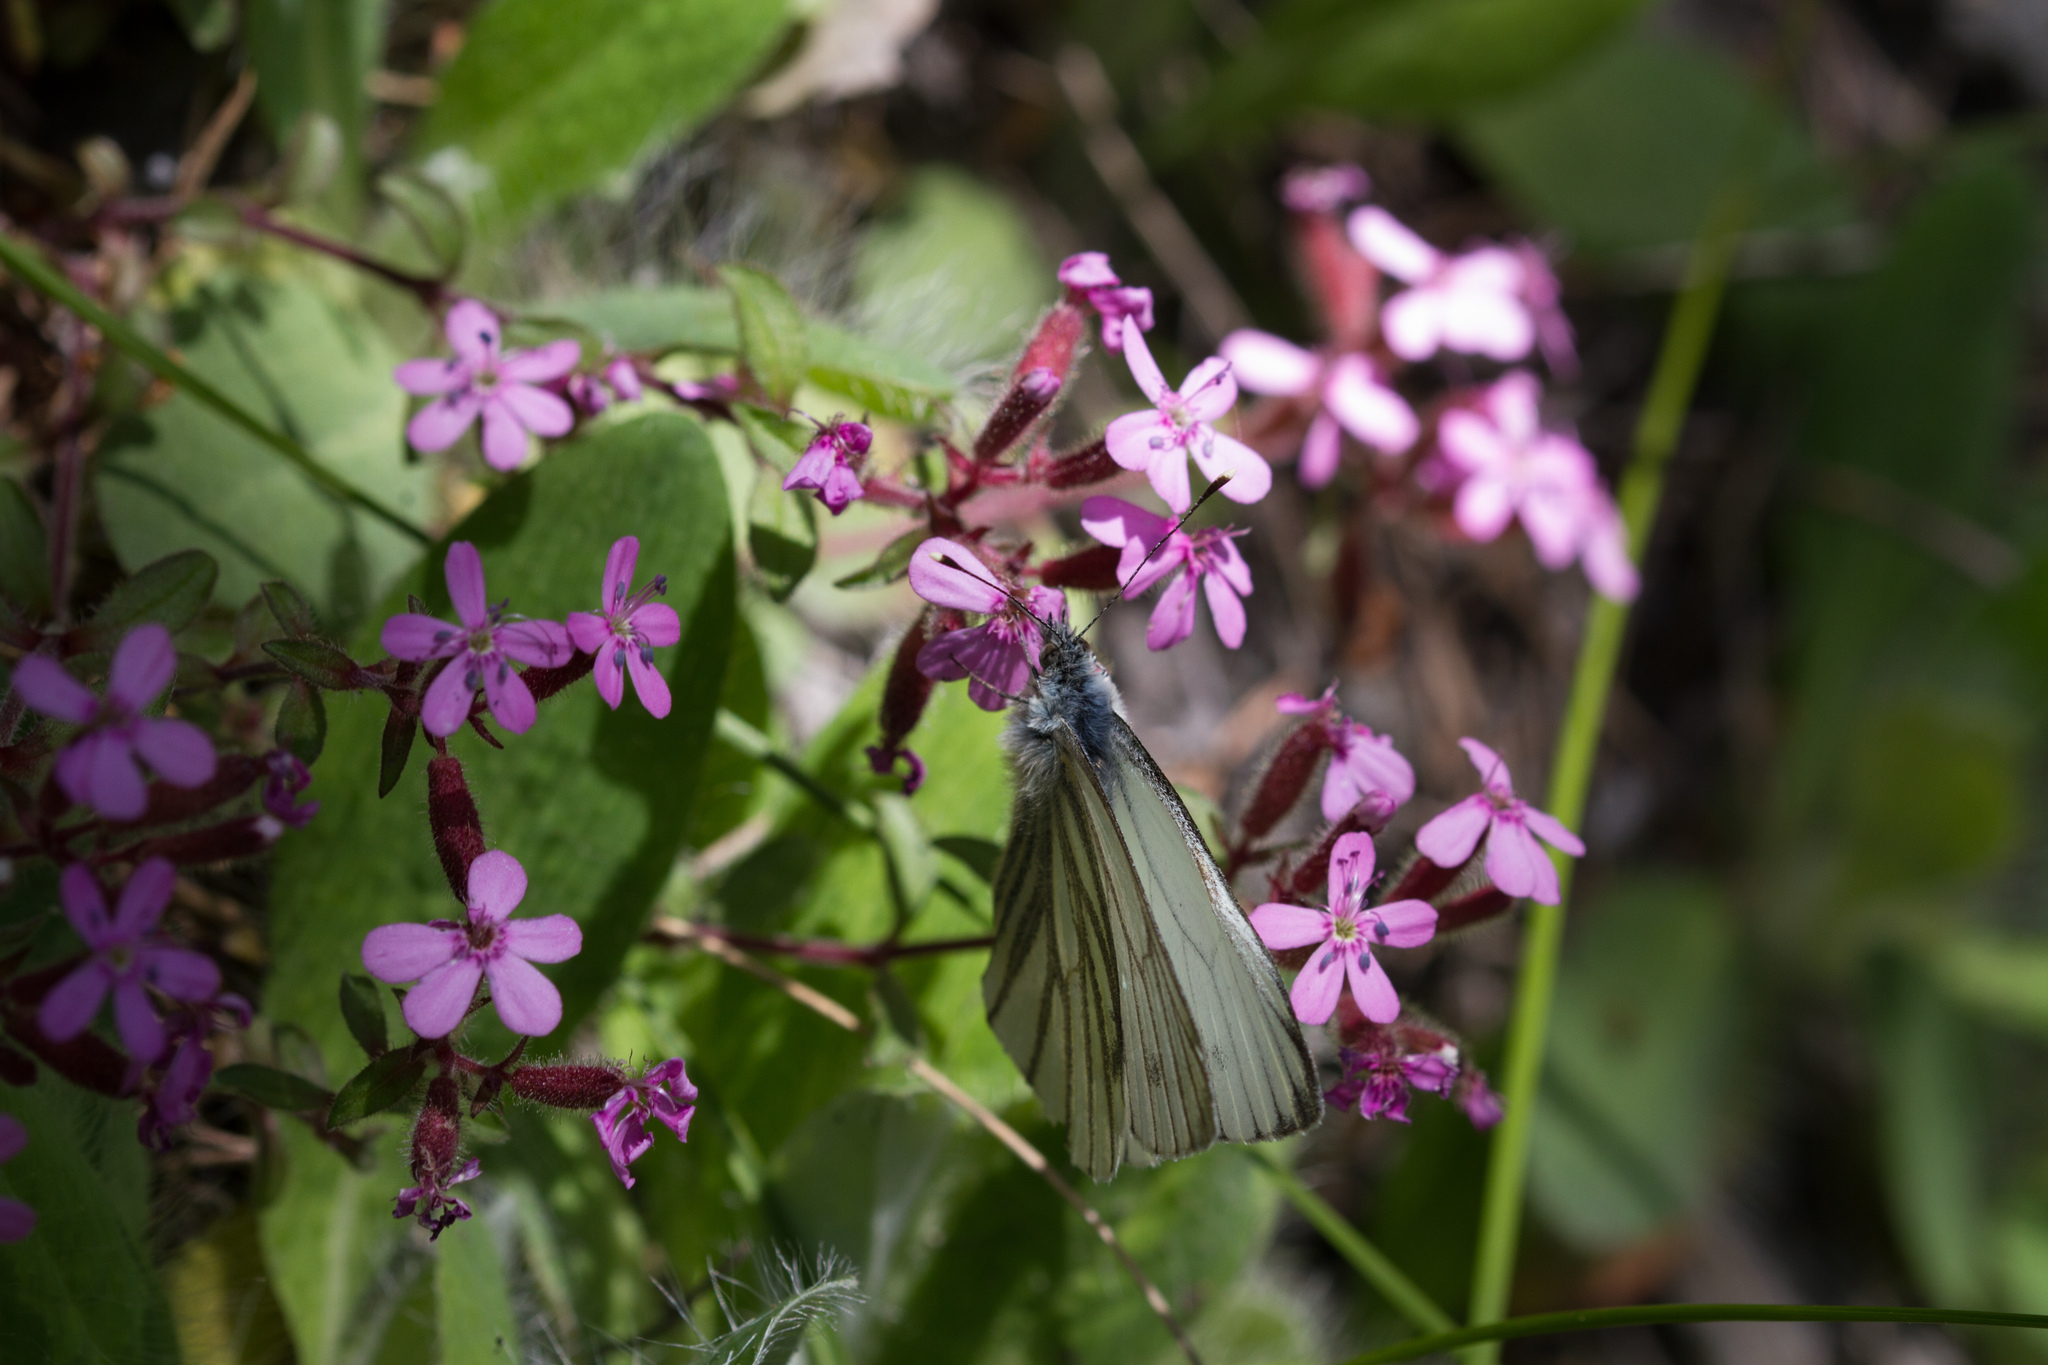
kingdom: Animalia
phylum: Arthropoda
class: Insecta
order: Lepidoptera
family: Pieridae
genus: Pieris
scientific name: Pieris bryoniae
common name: Mountain green-veined white
